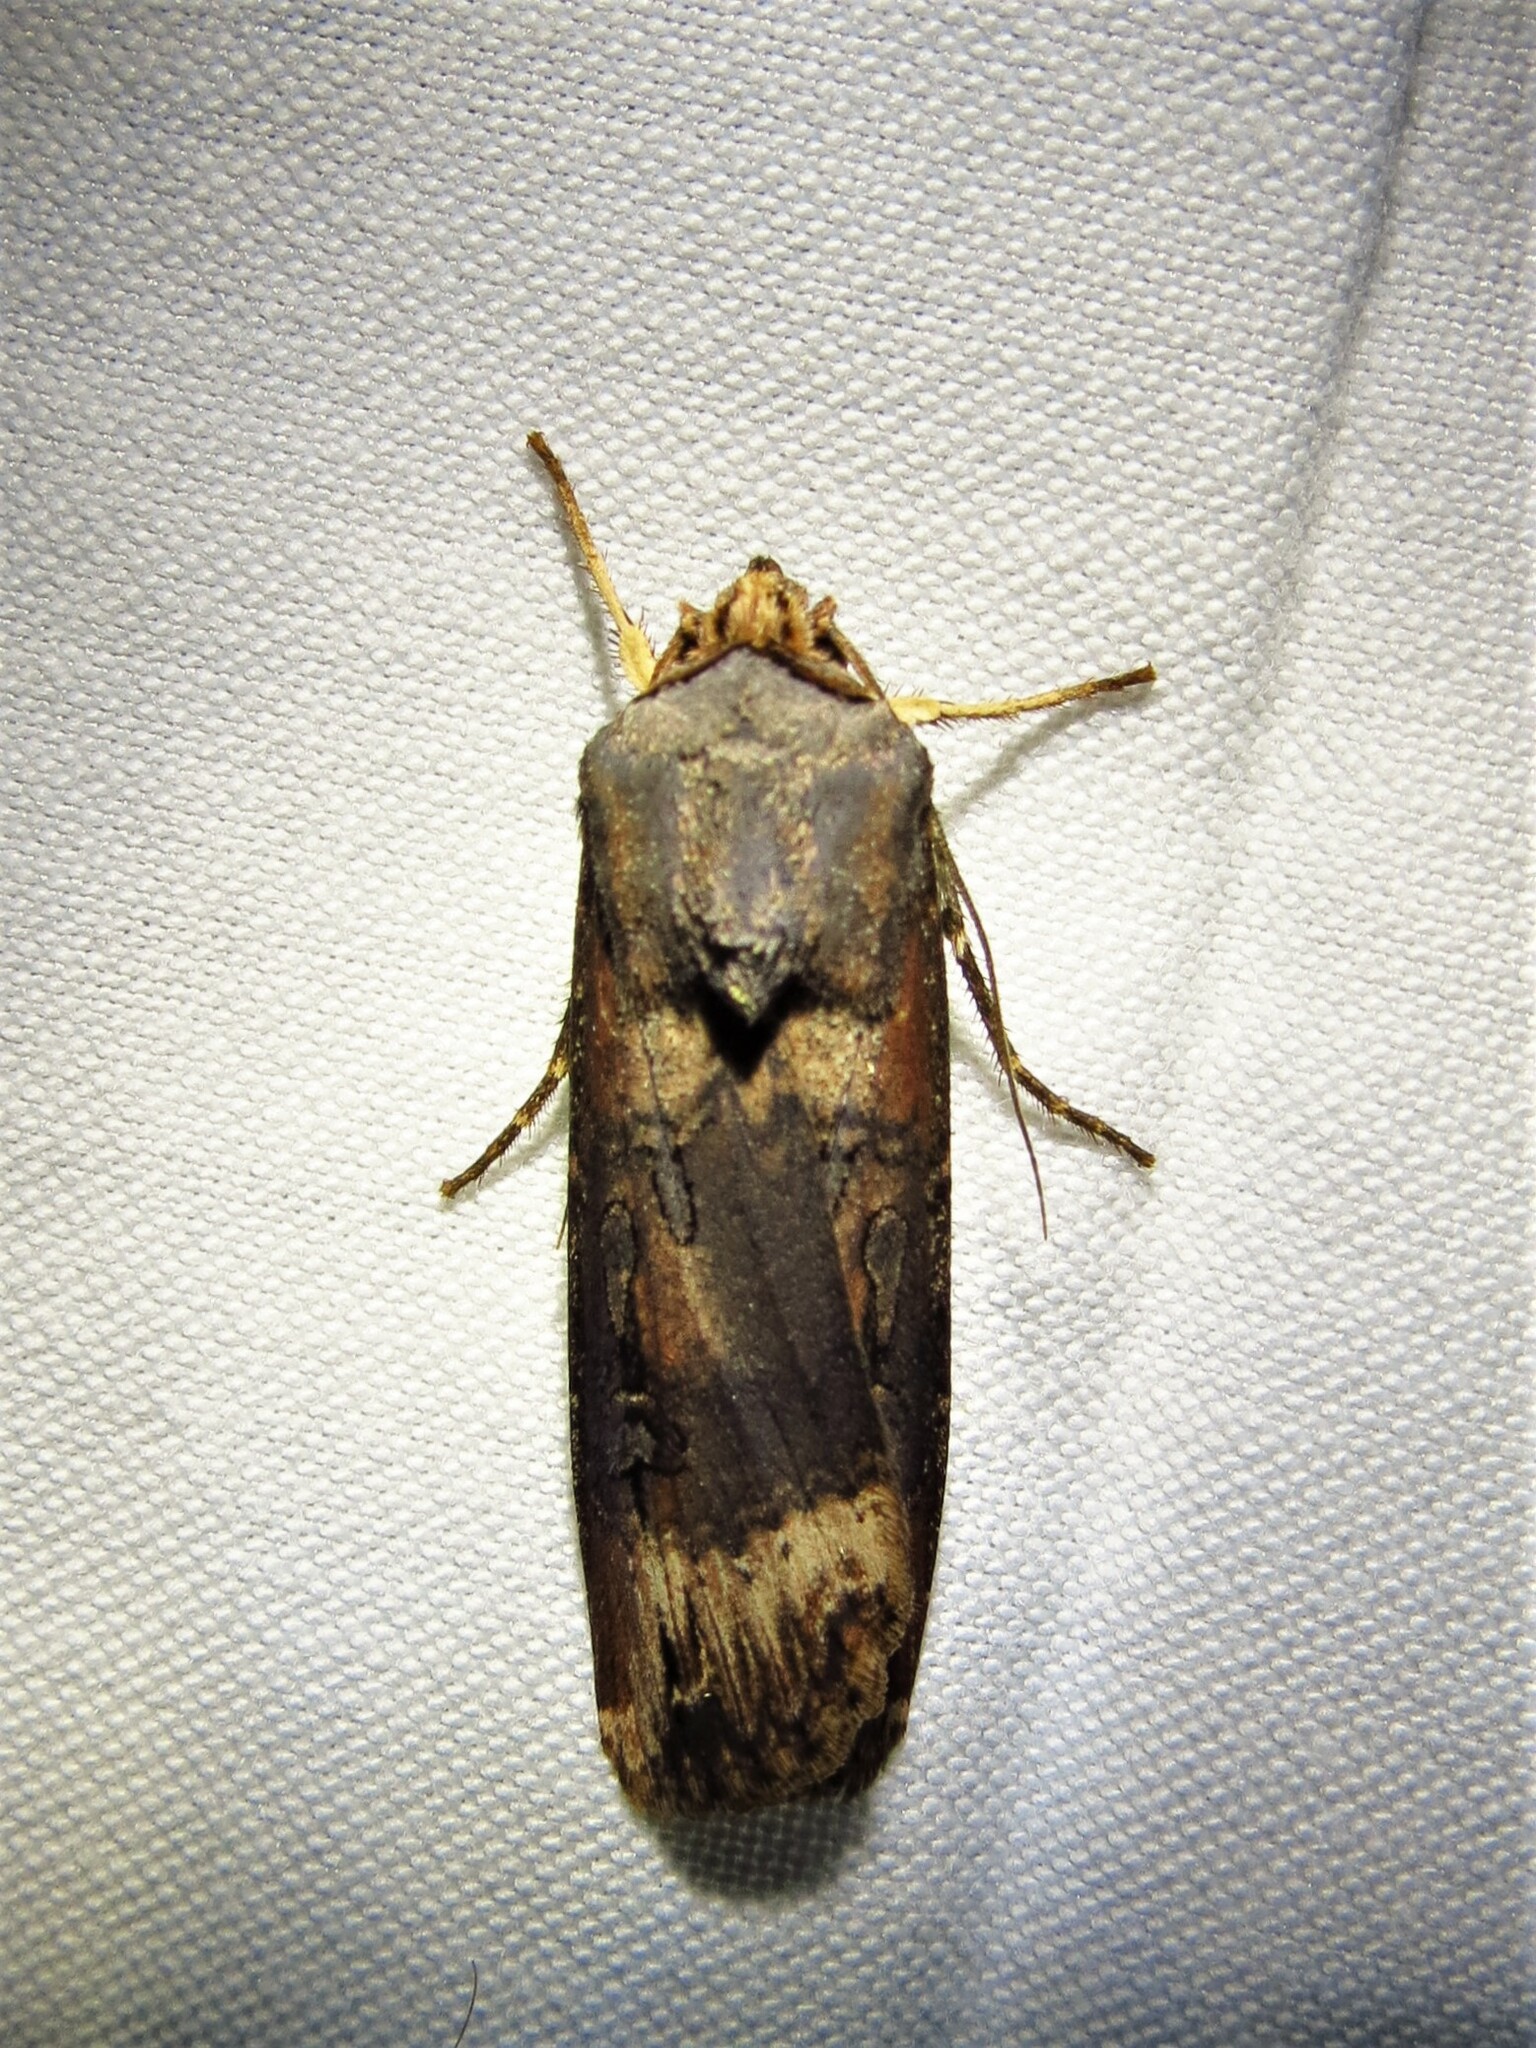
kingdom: Animalia
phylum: Arthropoda
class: Insecta
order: Lepidoptera
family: Noctuidae
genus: Agrotis
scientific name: Agrotis ipsilon
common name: Dark sword-grass
